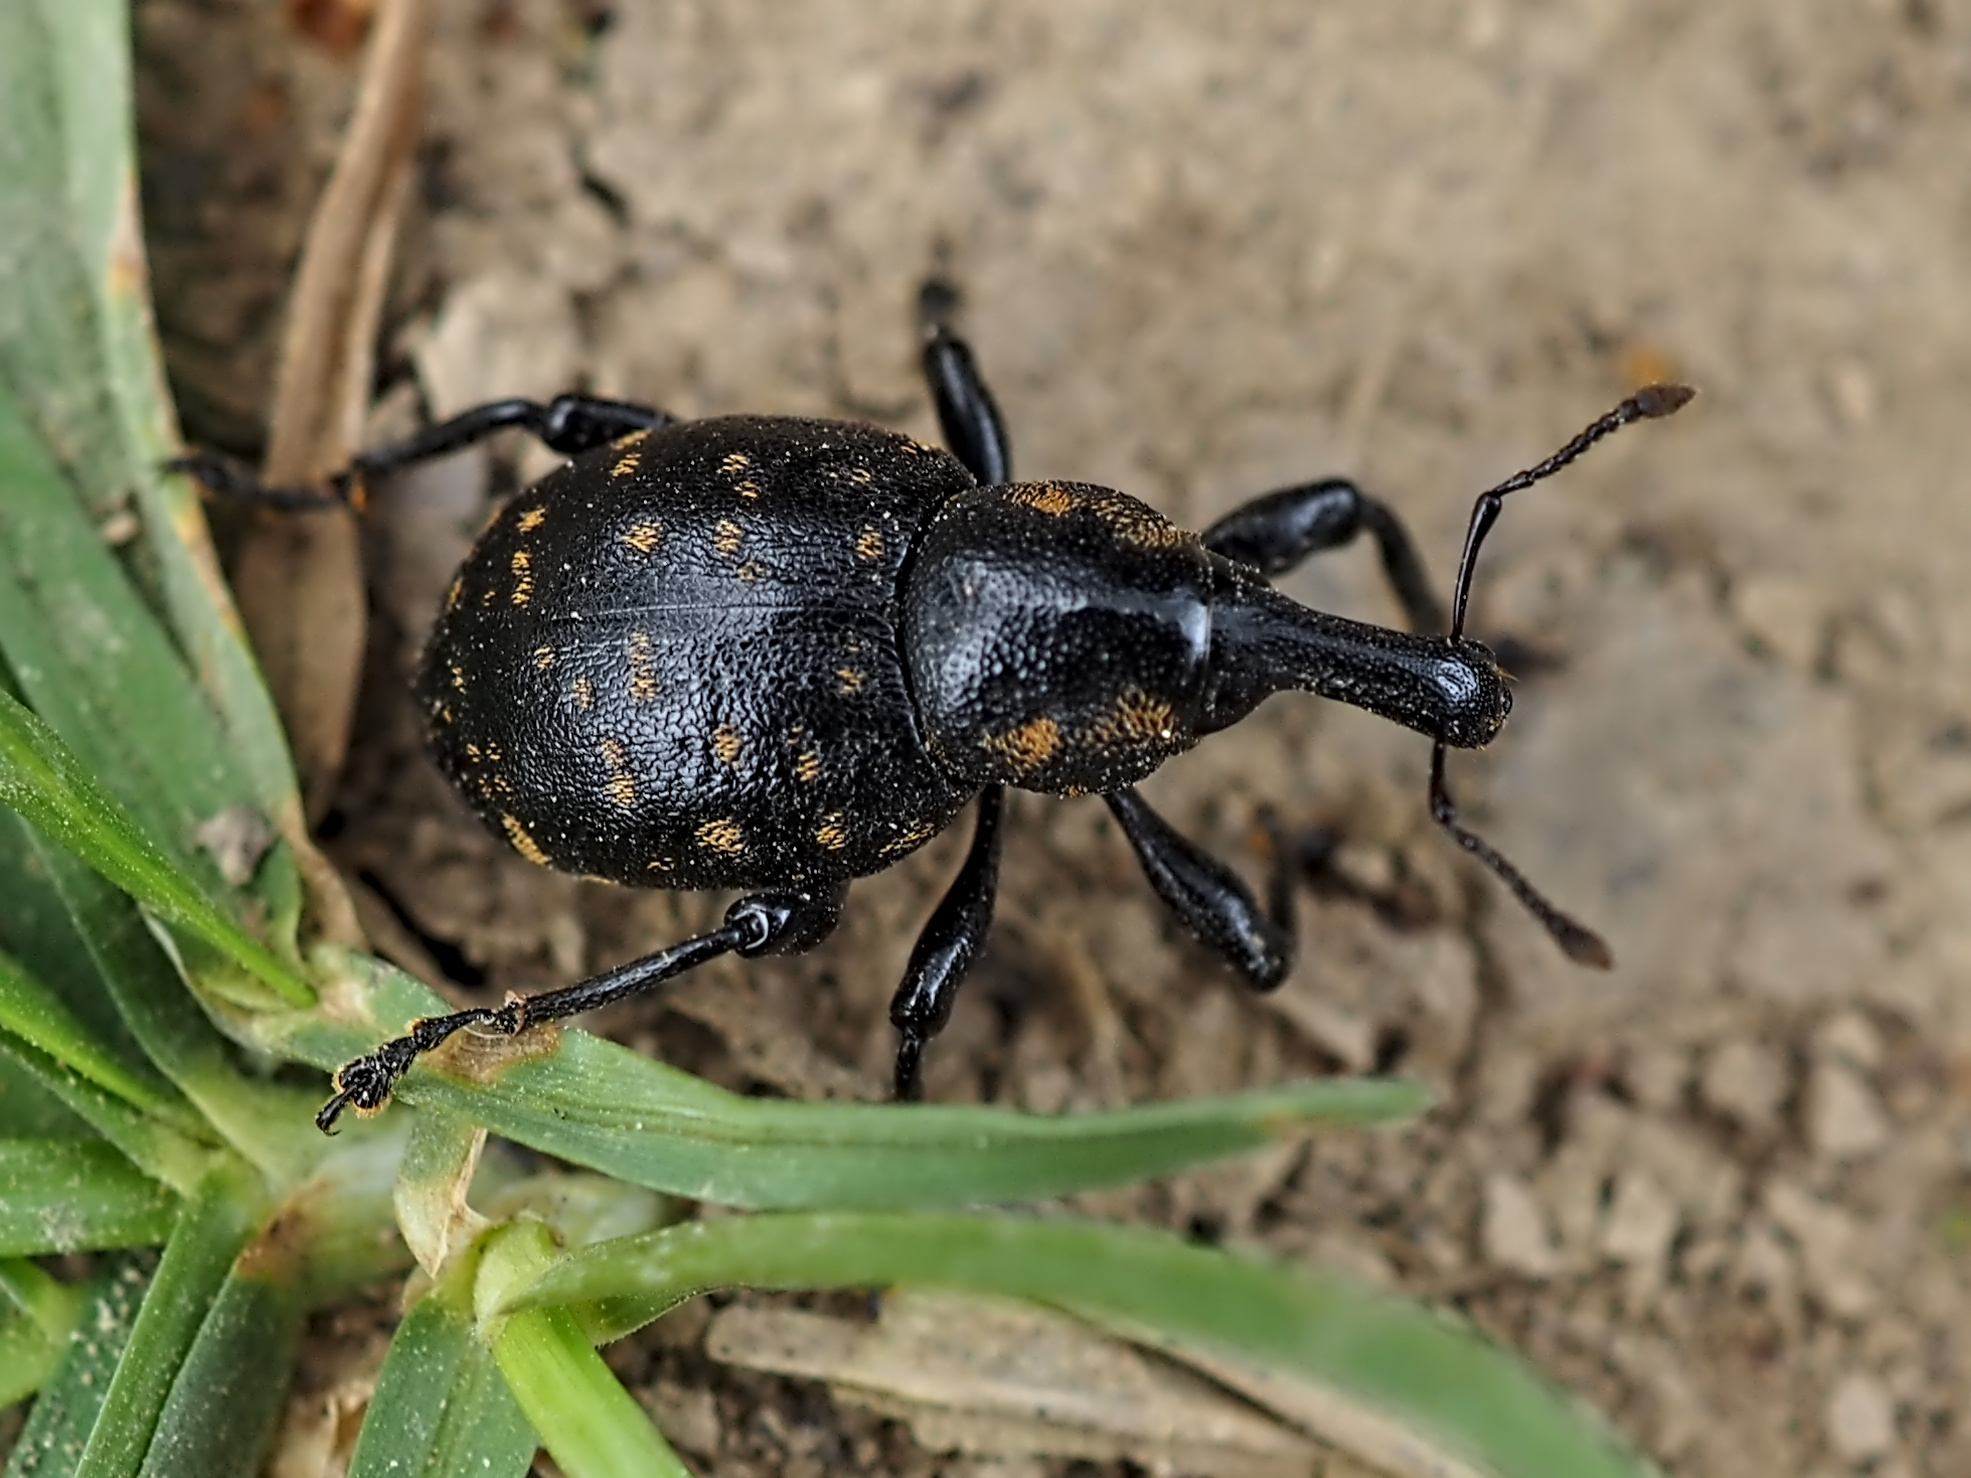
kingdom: Animalia
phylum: Arthropoda
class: Insecta
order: Coleoptera
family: Curculionidae
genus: Liparus
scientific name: Liparus germanus
